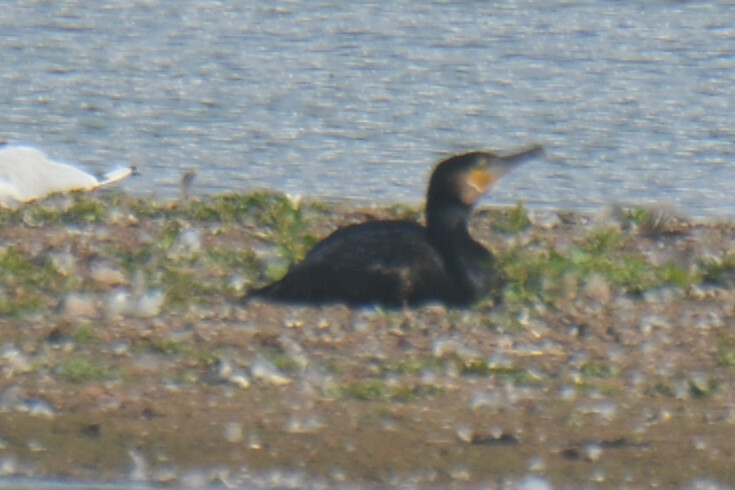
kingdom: Animalia
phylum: Chordata
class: Aves
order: Suliformes
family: Phalacrocoracidae
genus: Phalacrocorax
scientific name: Phalacrocorax carbo
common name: Great cormorant
